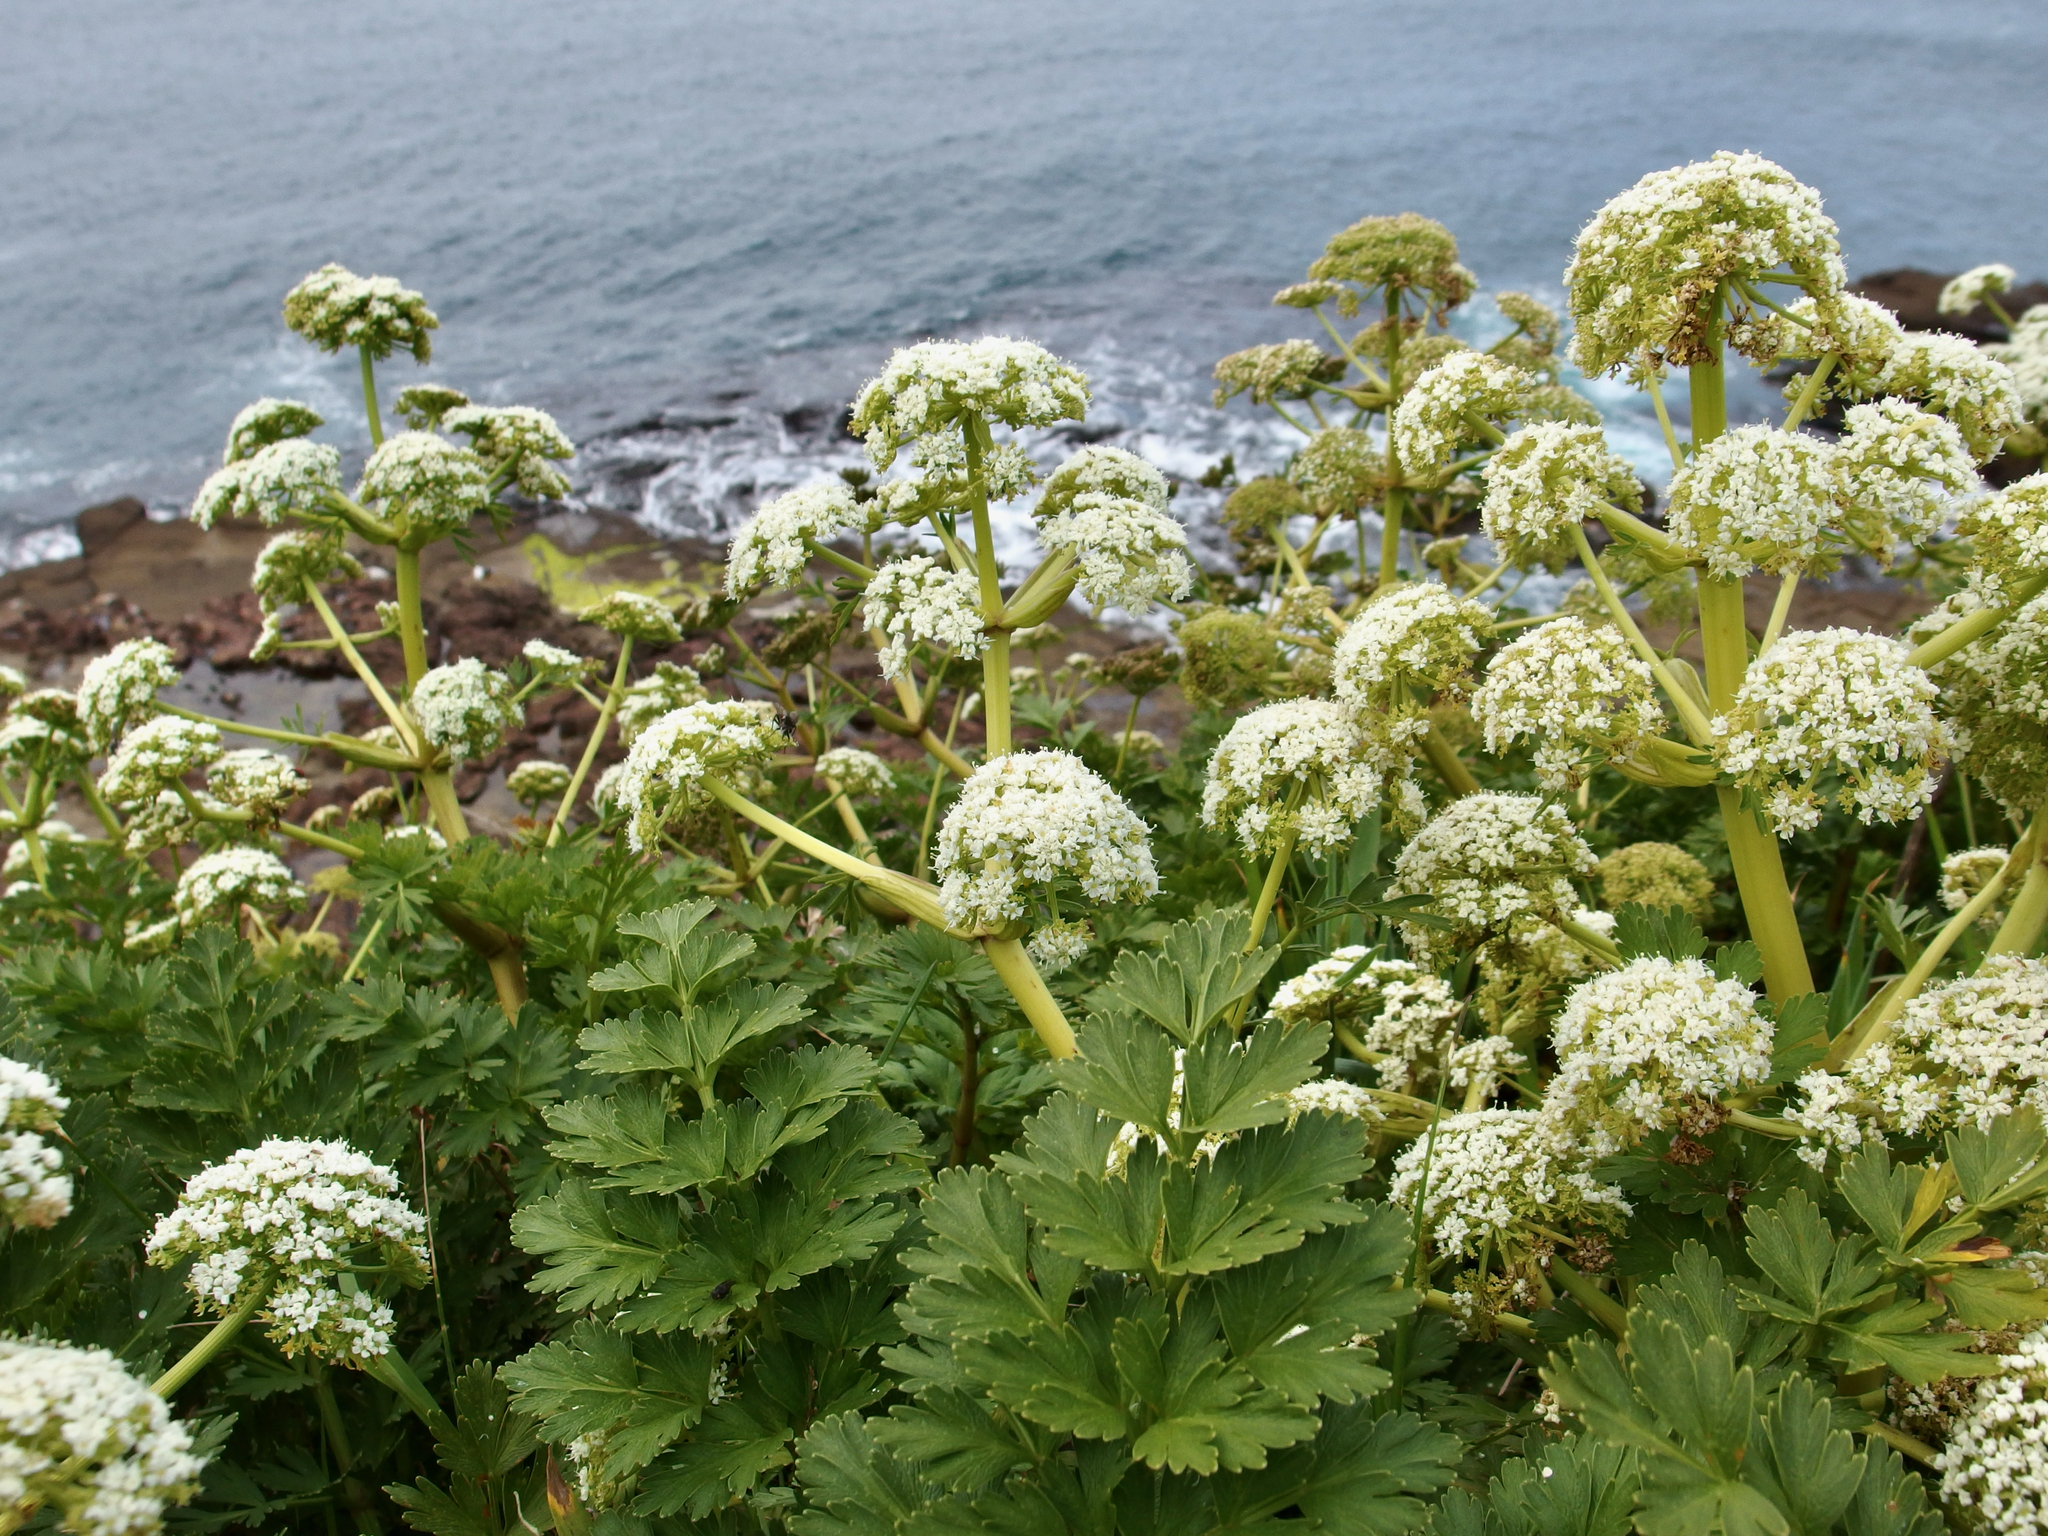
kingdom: Plantae
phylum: Tracheophyta
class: Magnoliopsida
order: Apiales
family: Apiaceae
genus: Anisotome
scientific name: Anisotome lyallii
